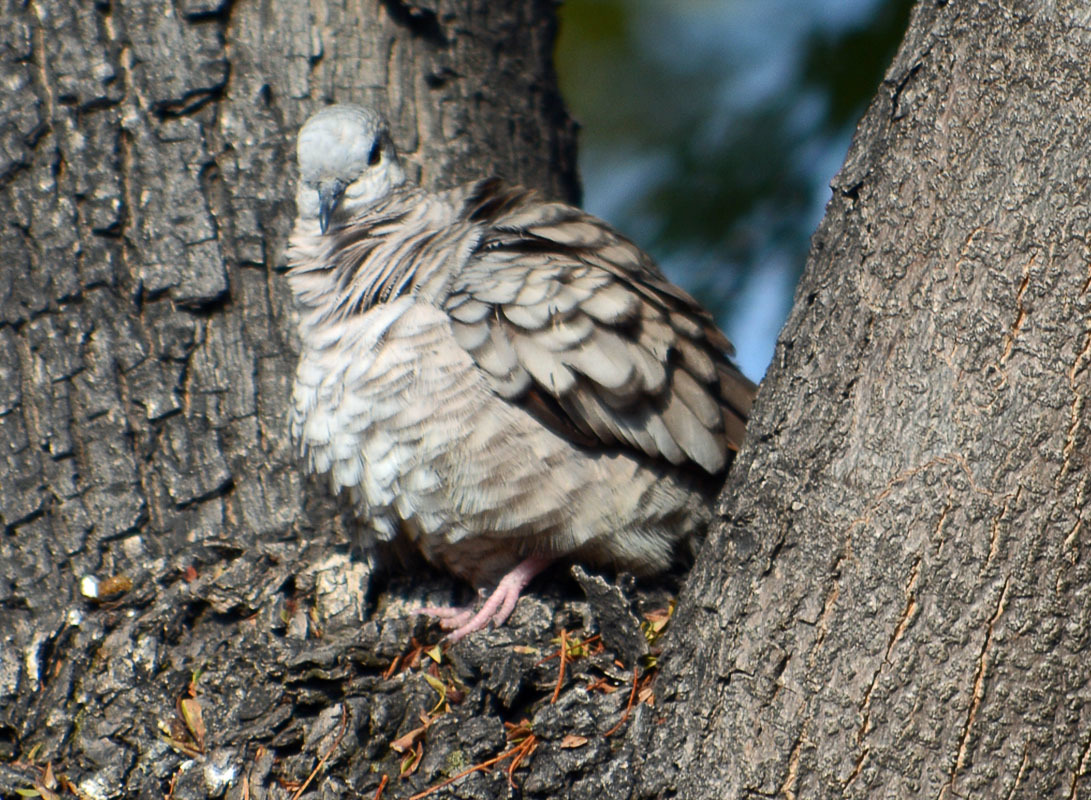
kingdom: Animalia
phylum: Chordata
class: Aves
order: Columbiformes
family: Columbidae
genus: Columbina
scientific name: Columbina inca
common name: Inca dove
